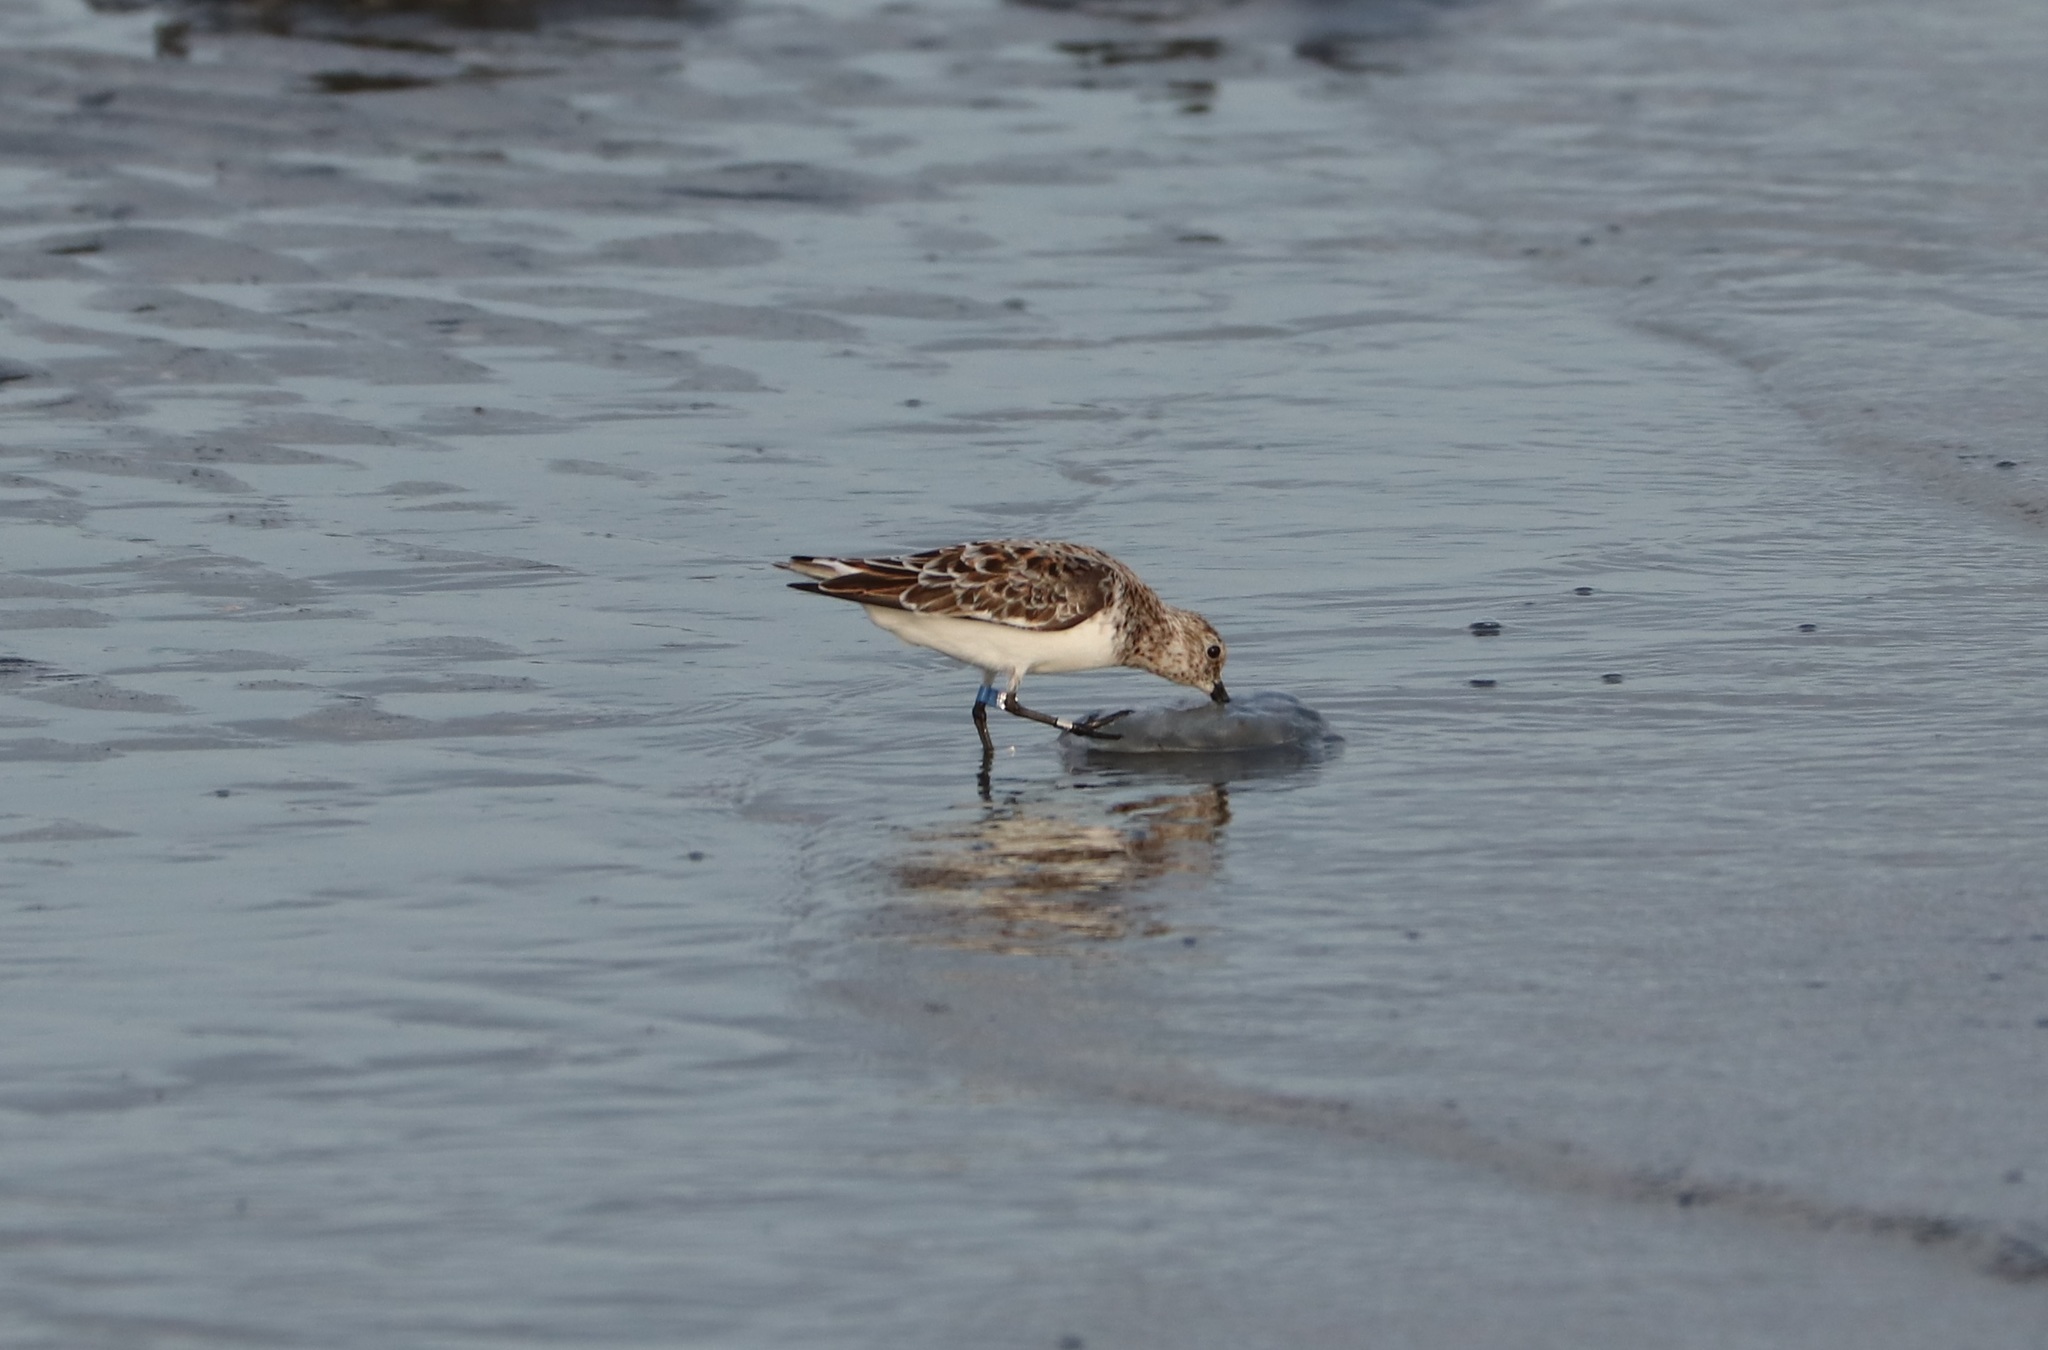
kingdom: Animalia
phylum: Chordata
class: Aves
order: Charadriiformes
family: Scolopacidae
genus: Calidris
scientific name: Calidris alba
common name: Sanderling
